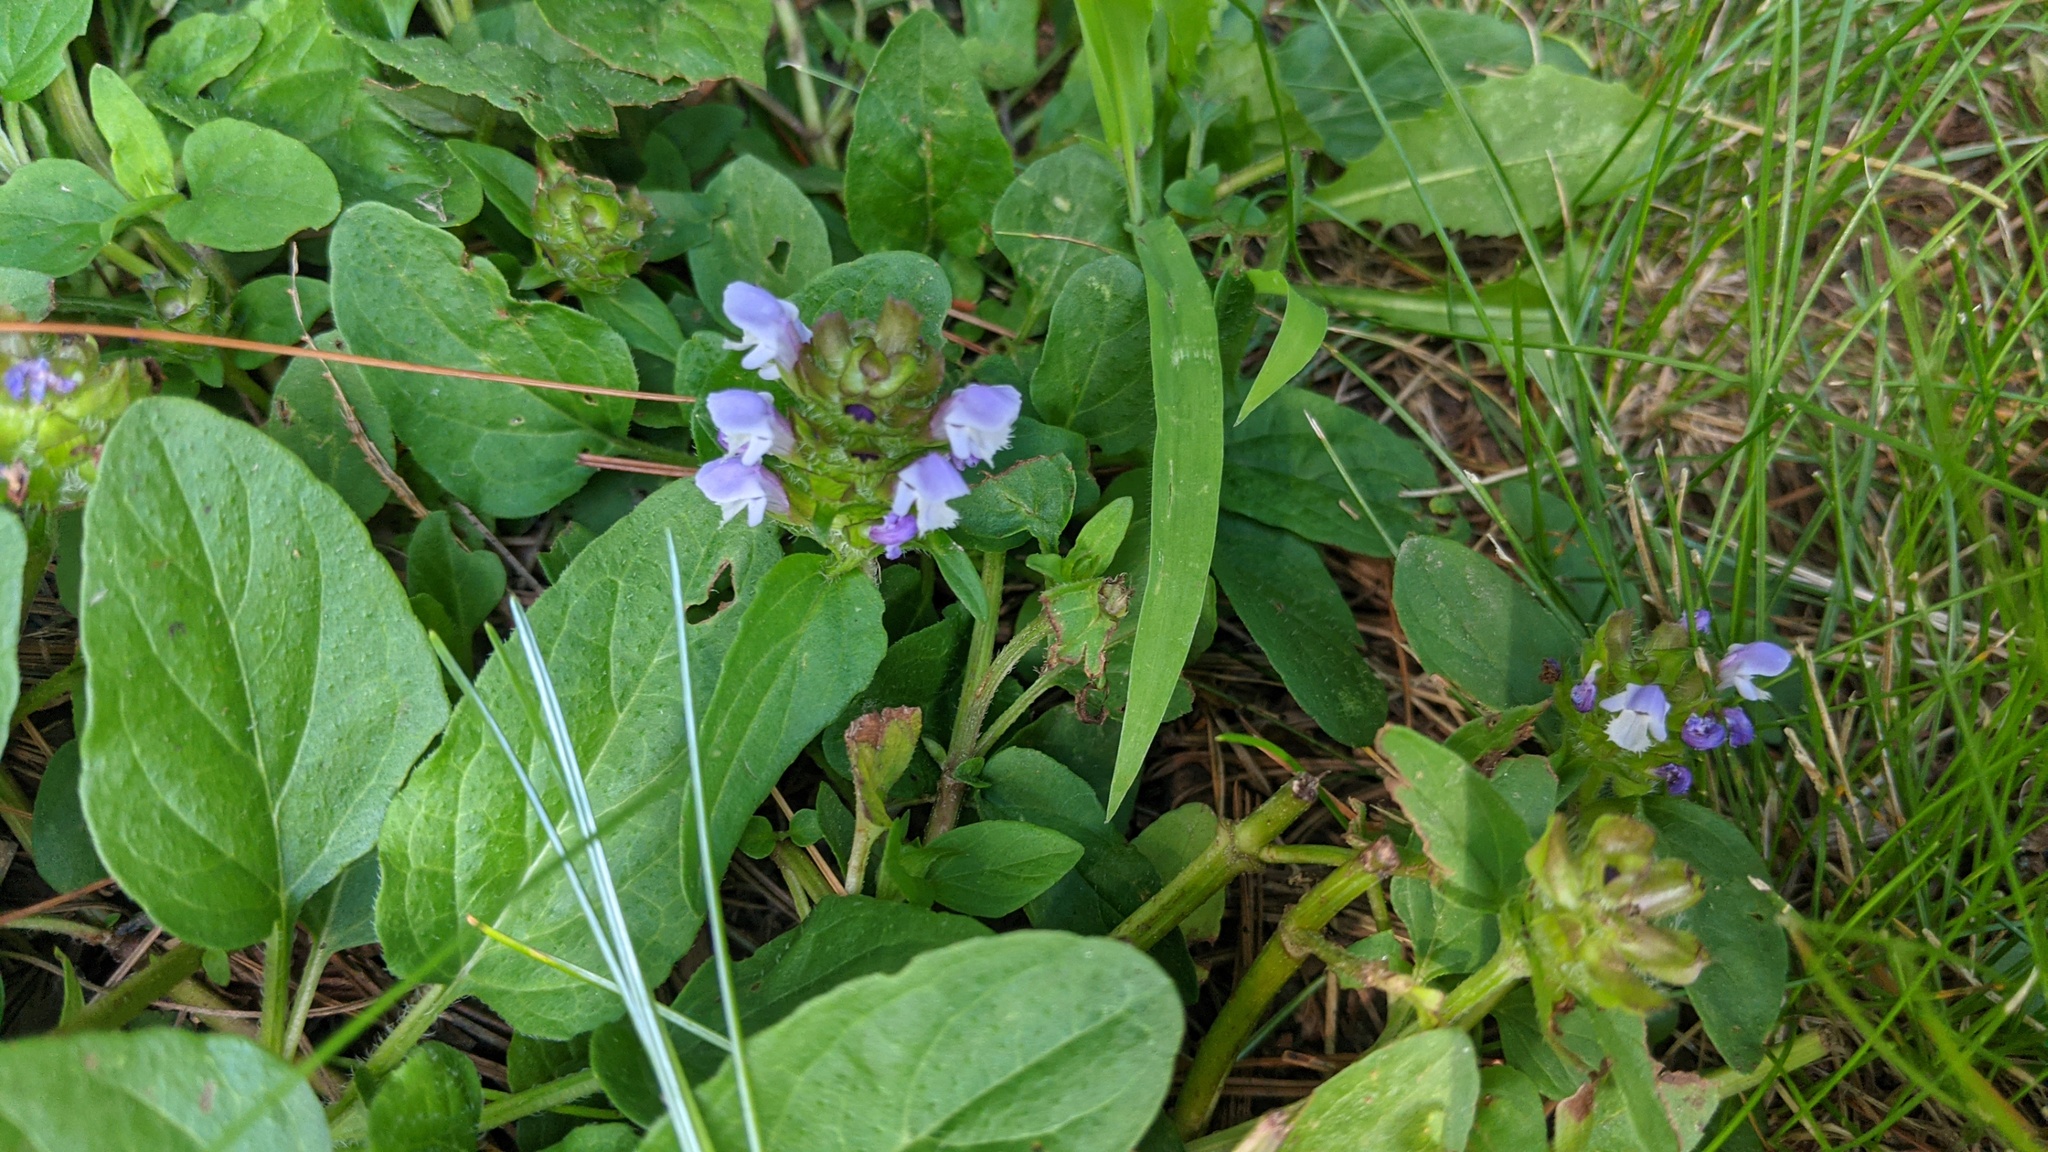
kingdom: Plantae
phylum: Tracheophyta
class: Magnoliopsida
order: Lamiales
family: Lamiaceae
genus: Prunella
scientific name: Prunella vulgaris
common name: Heal-all
